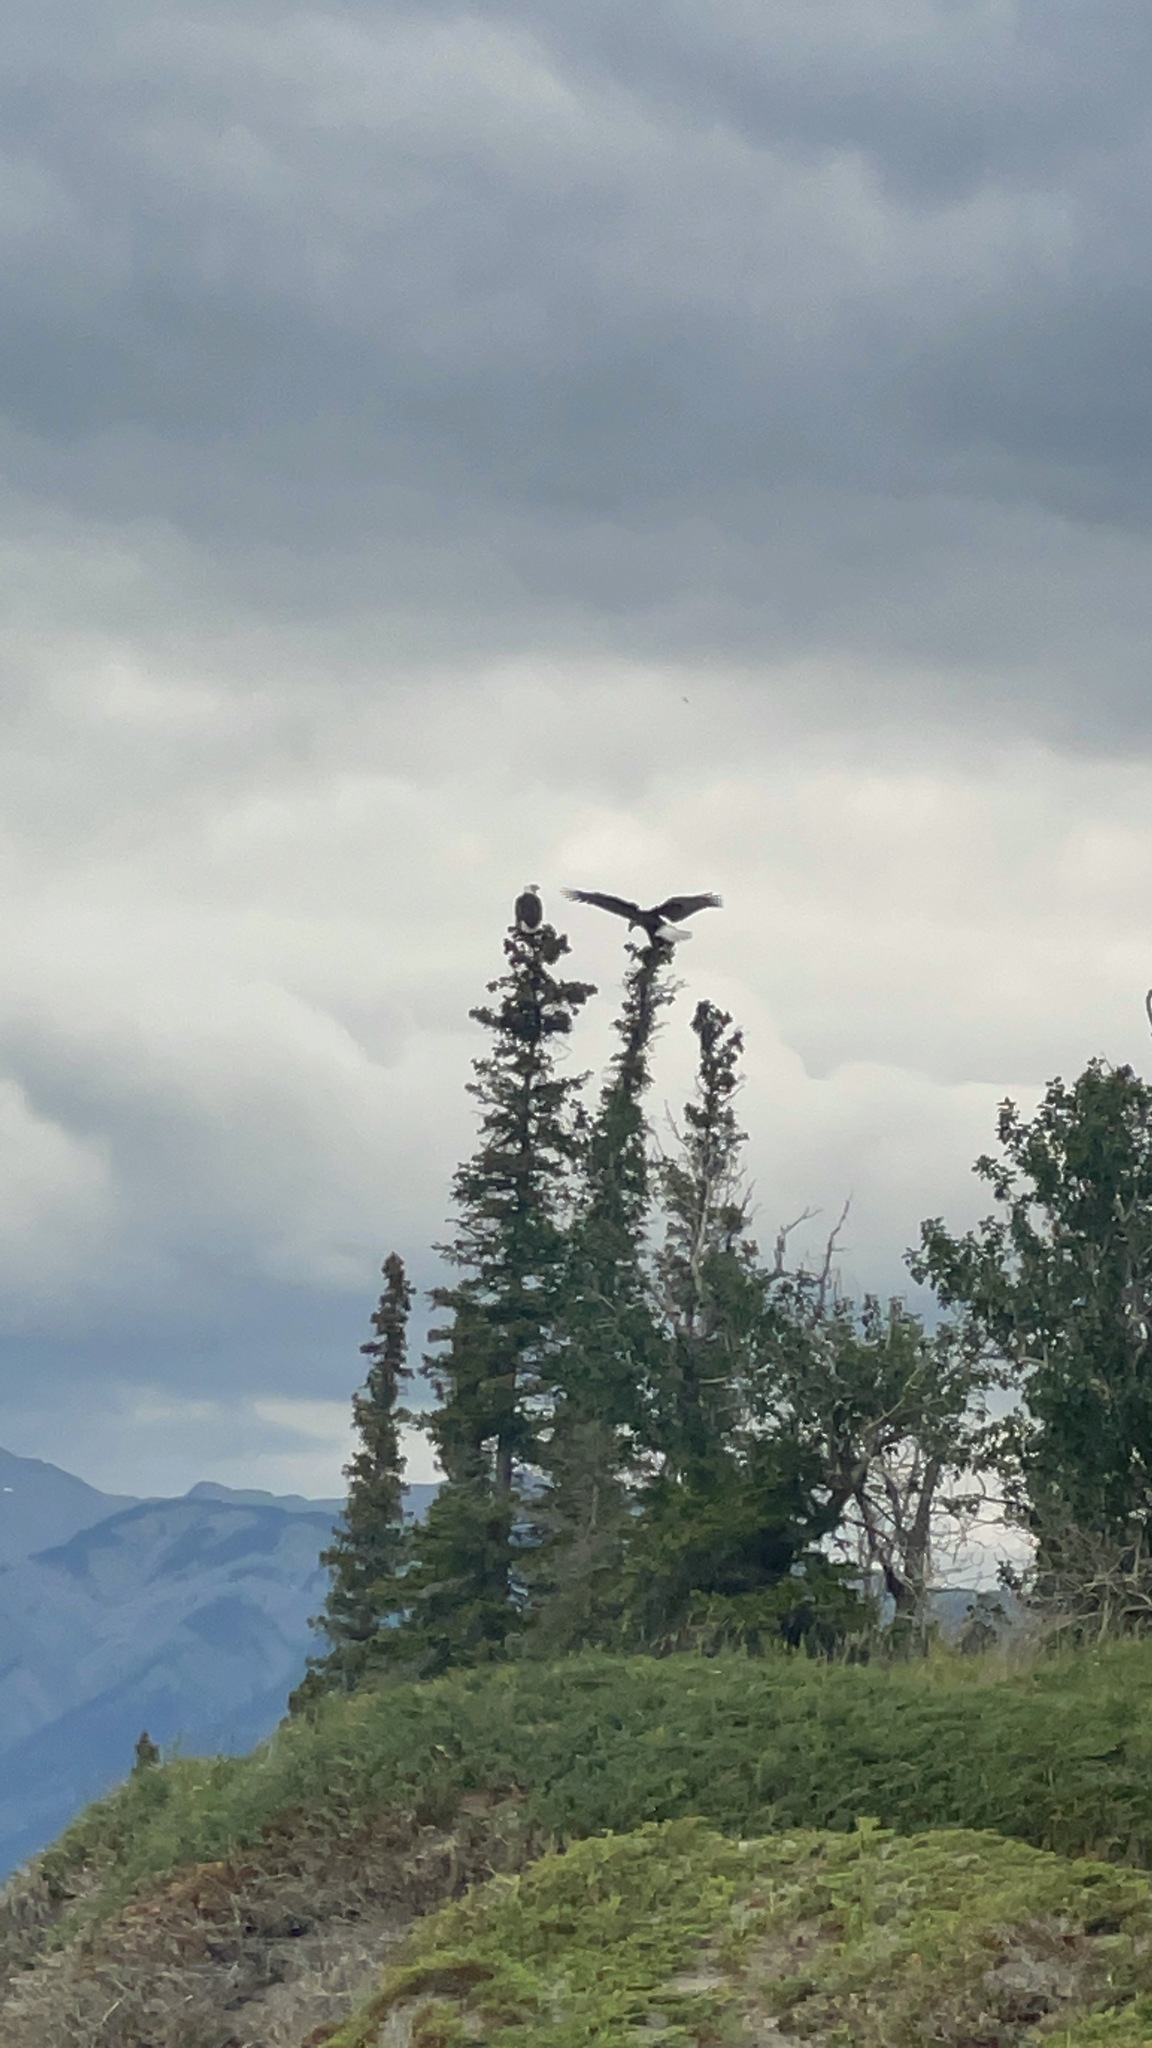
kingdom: Animalia
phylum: Chordata
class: Aves
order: Accipitriformes
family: Accipitridae
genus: Haliaeetus
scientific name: Haliaeetus leucocephalus
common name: Bald eagle
